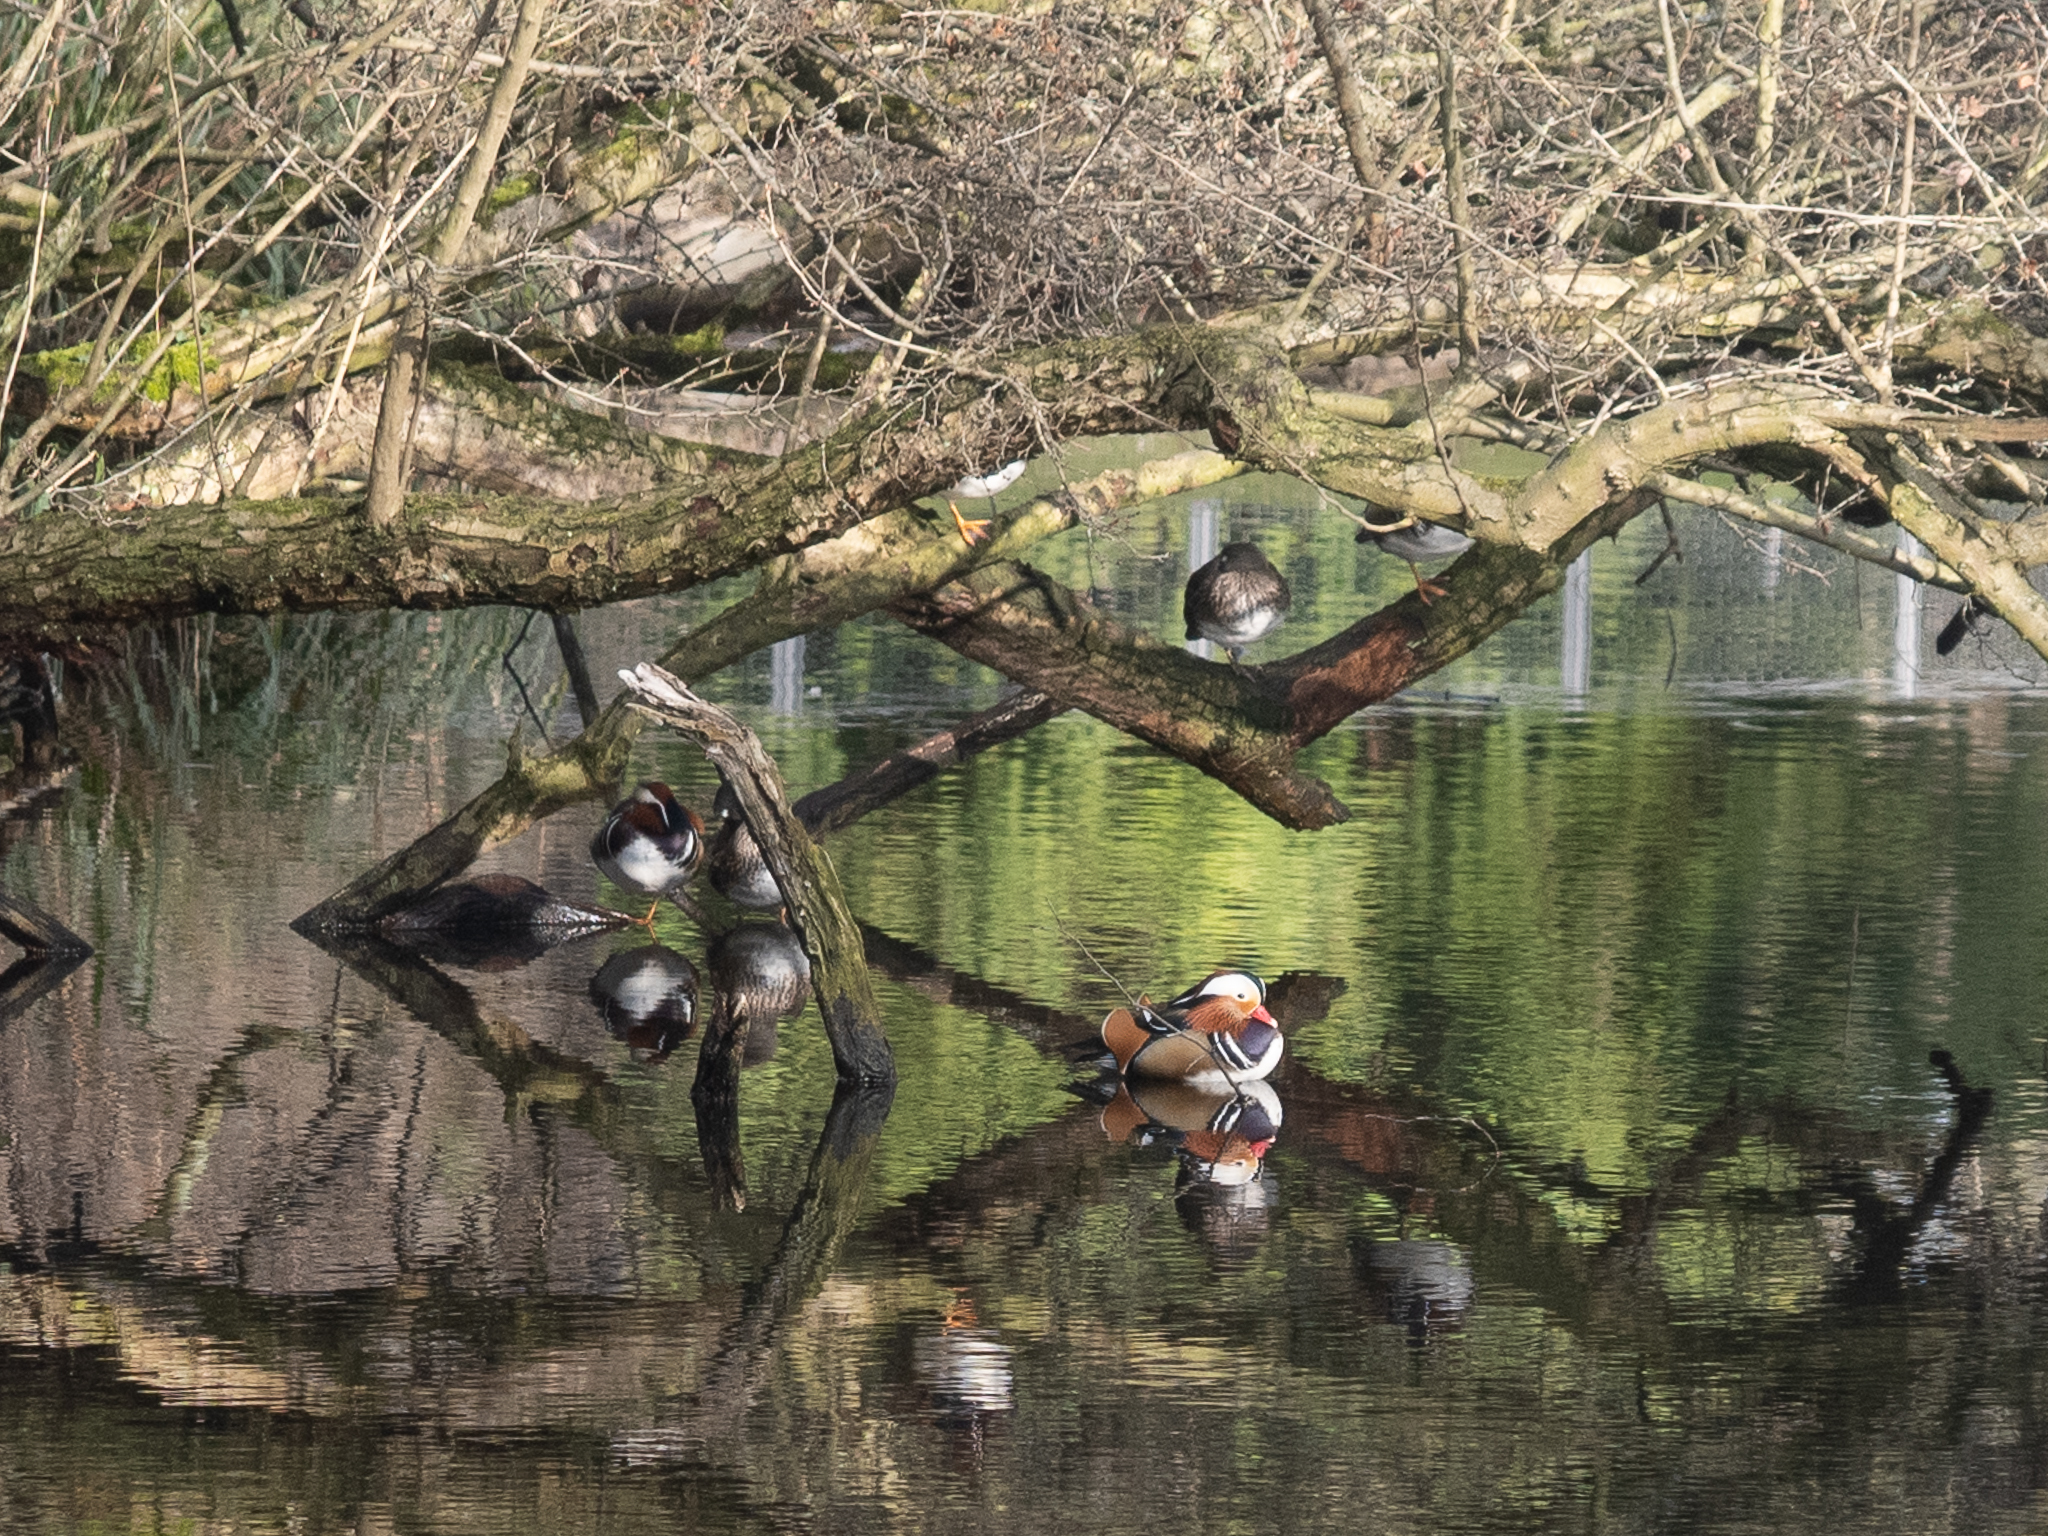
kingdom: Animalia
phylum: Chordata
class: Aves
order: Anseriformes
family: Anatidae
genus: Aix
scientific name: Aix galericulata
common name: Mandarin duck
